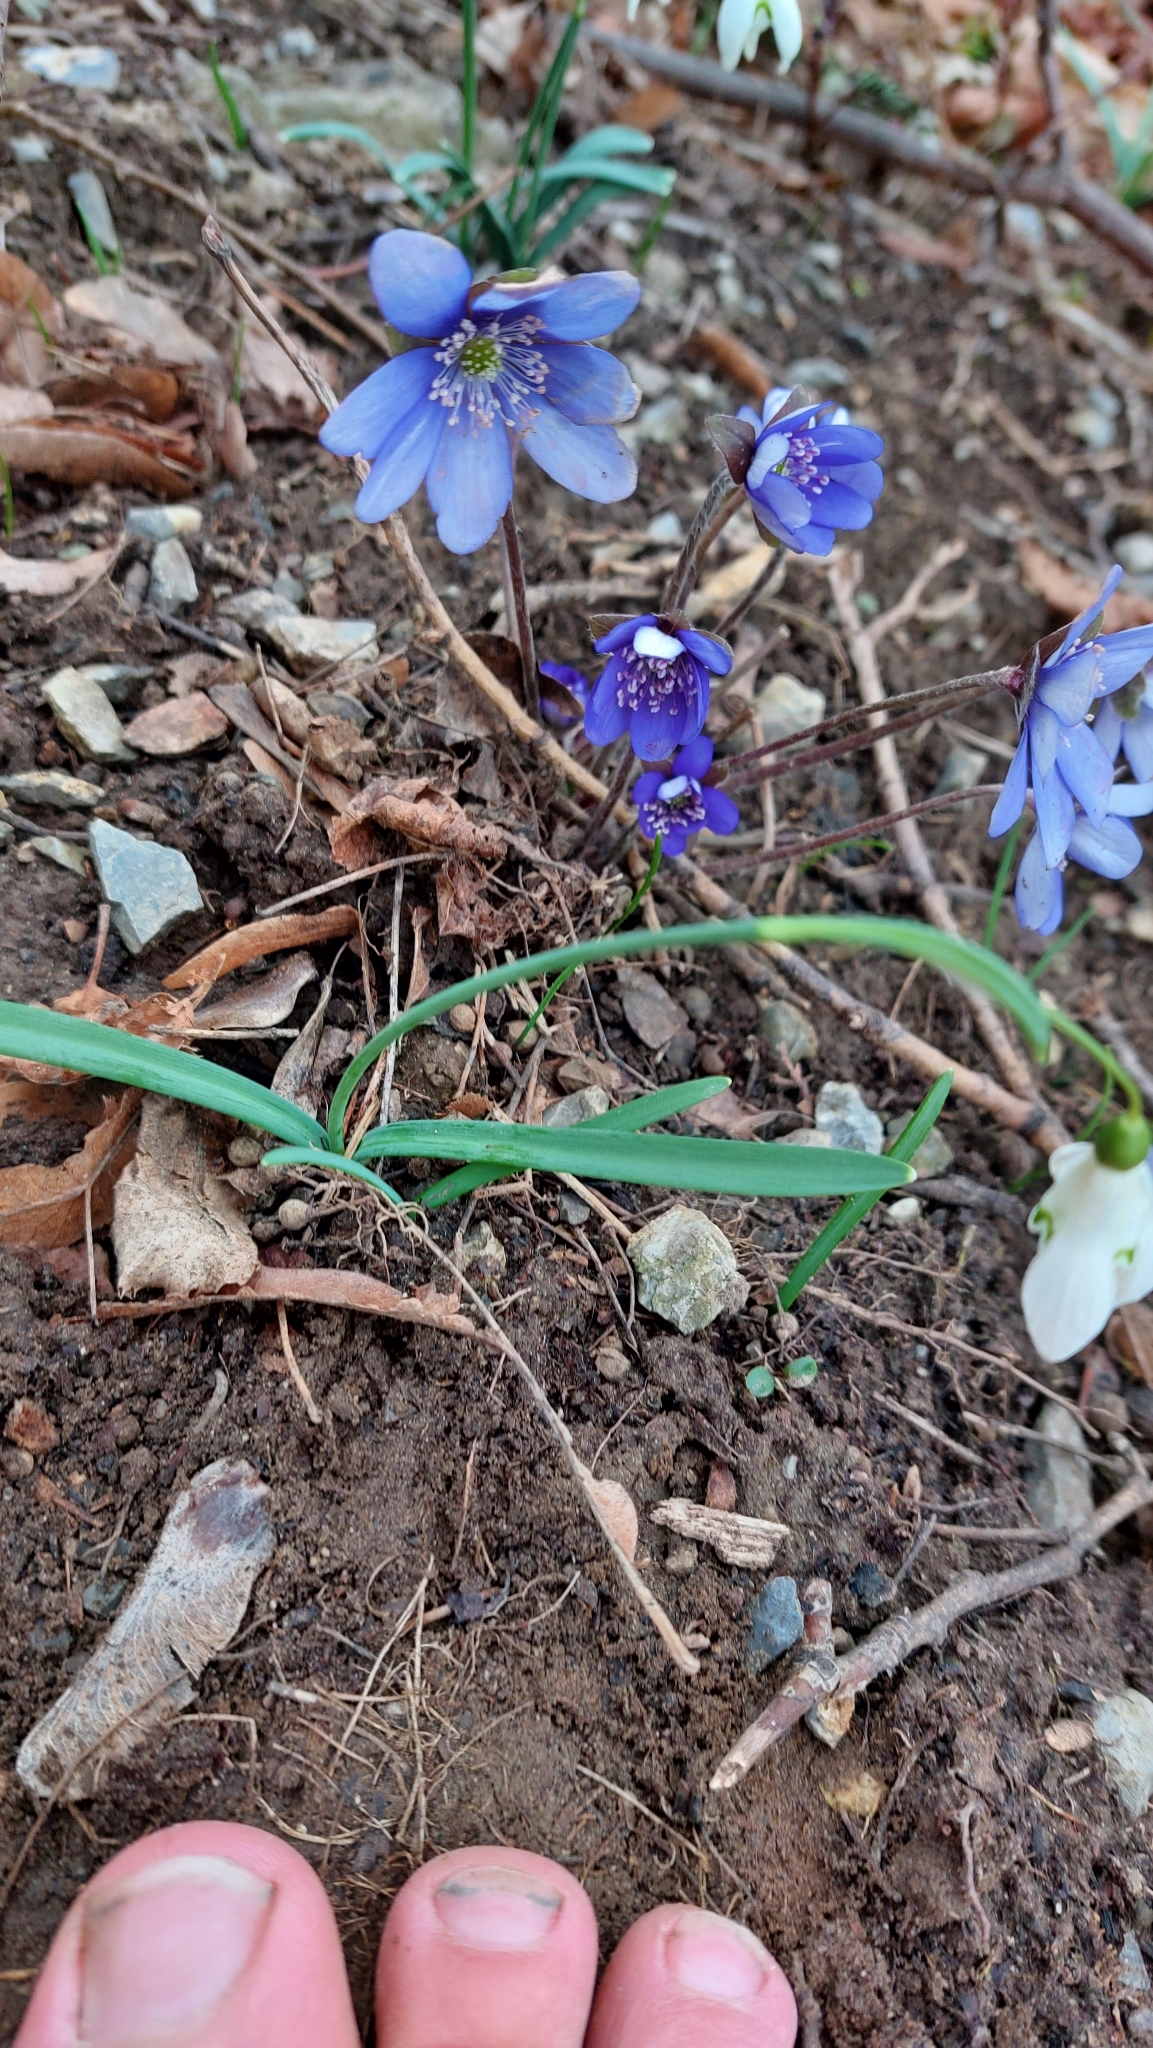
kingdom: Plantae
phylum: Tracheophyta
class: Magnoliopsida
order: Ranunculales
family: Ranunculaceae
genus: Hepatica
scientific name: Hepatica nobilis
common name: Liverleaf
